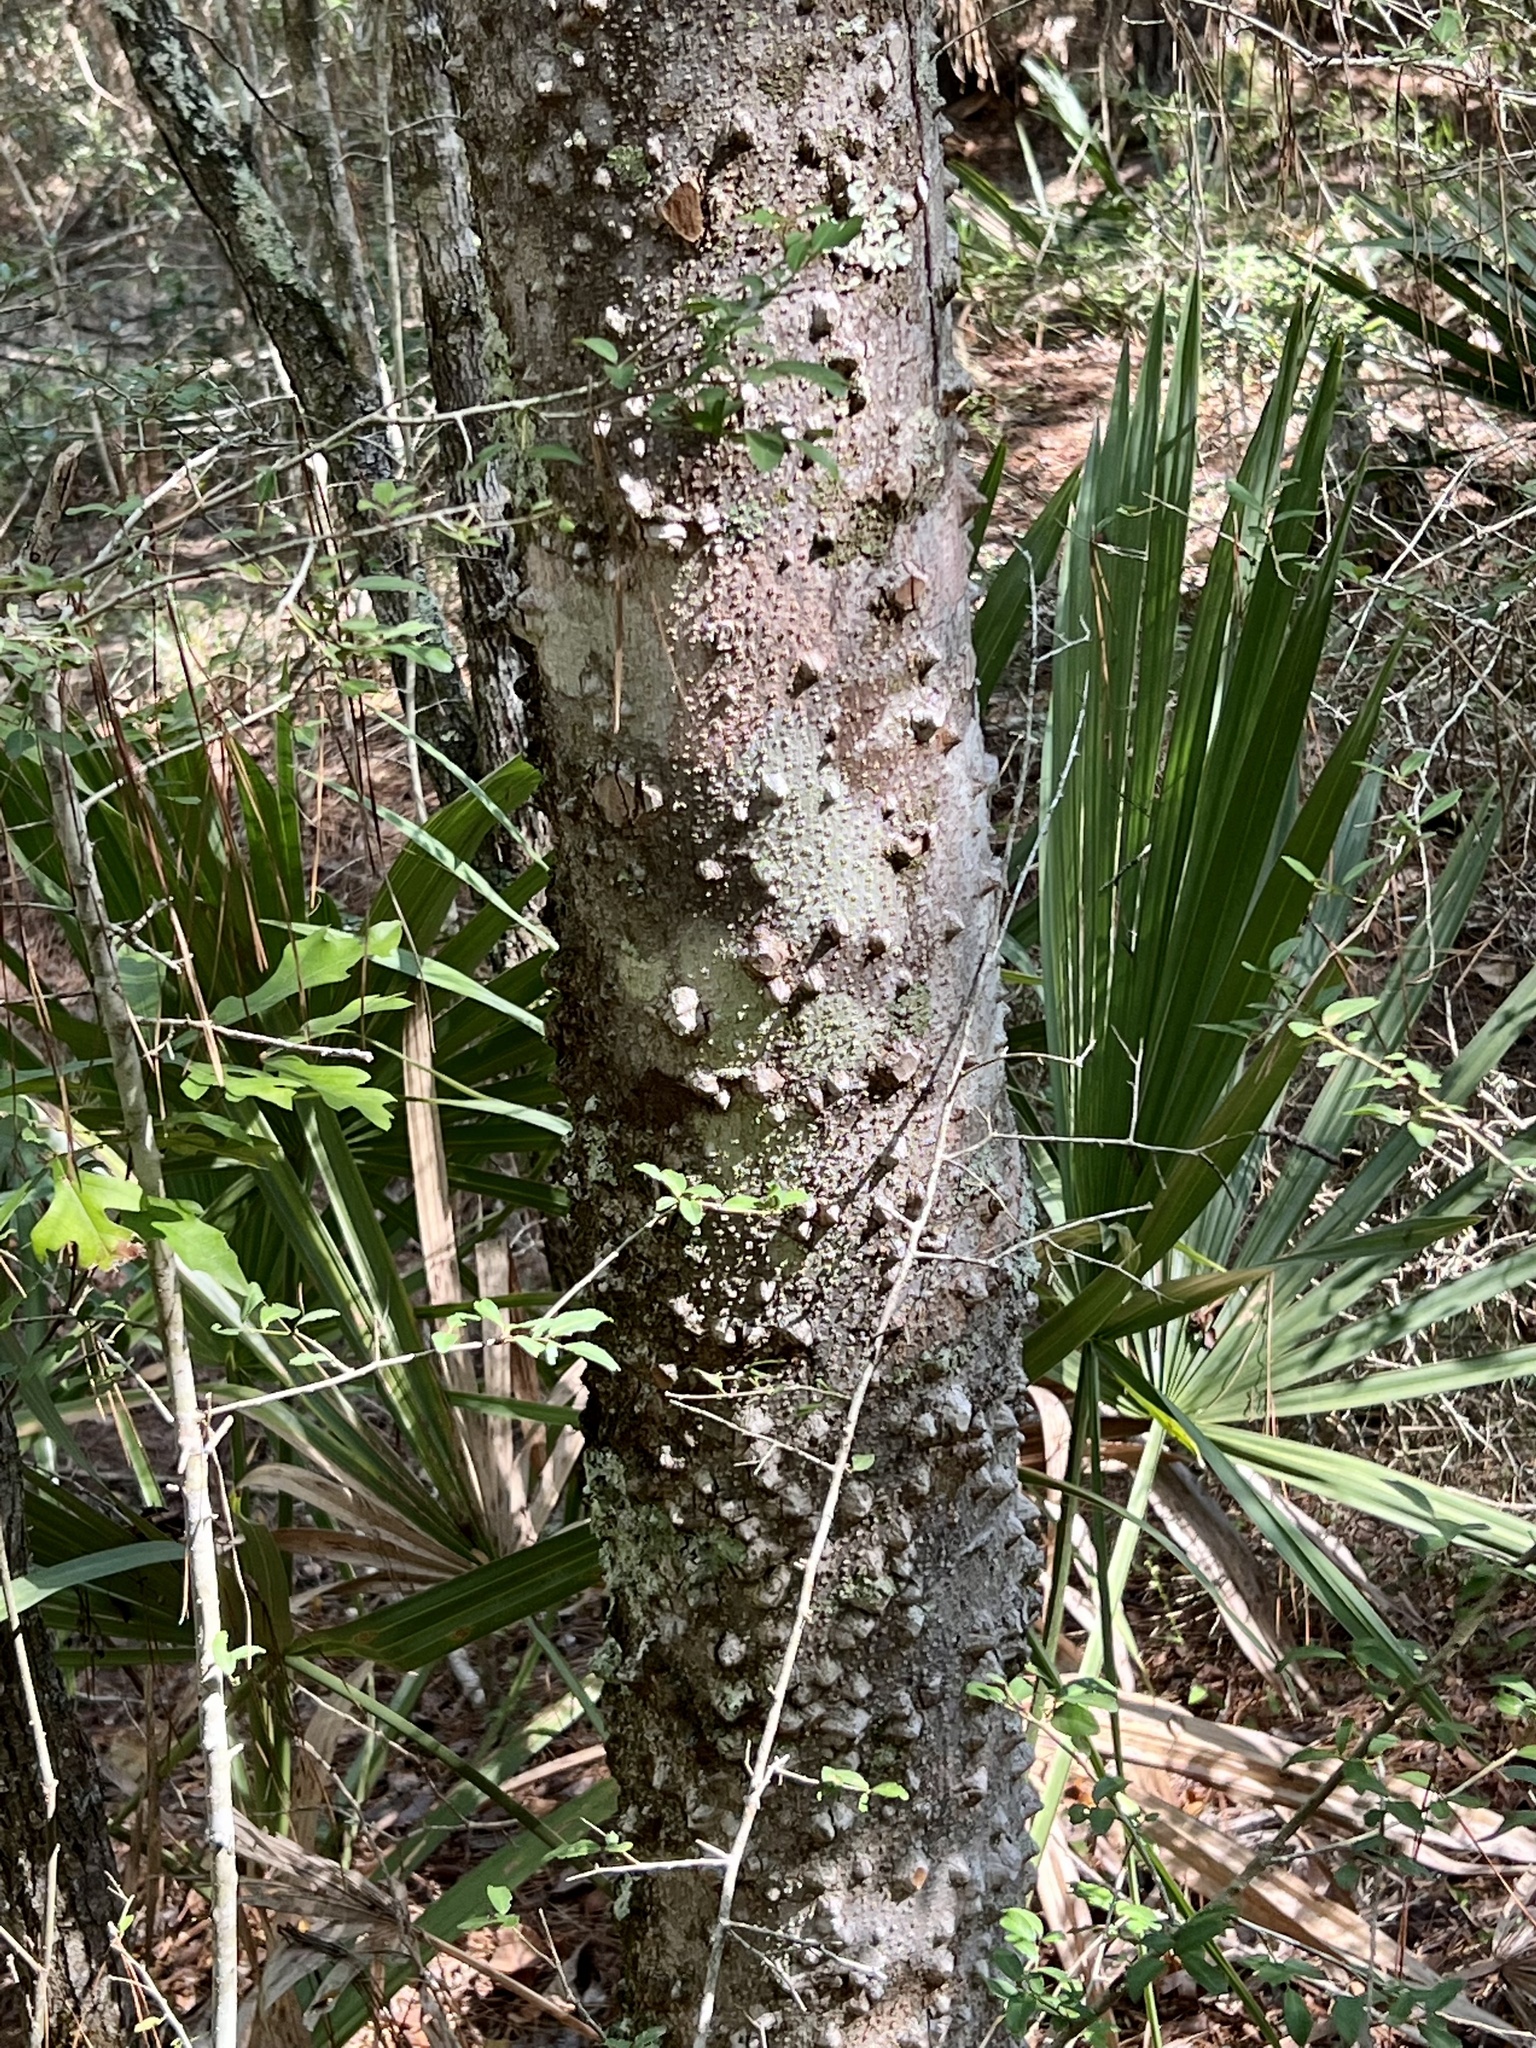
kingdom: Plantae
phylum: Tracheophyta
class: Magnoliopsida
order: Sapindales
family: Rutaceae
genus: Zanthoxylum
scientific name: Zanthoxylum clava-herculis
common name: Hercules'-club
